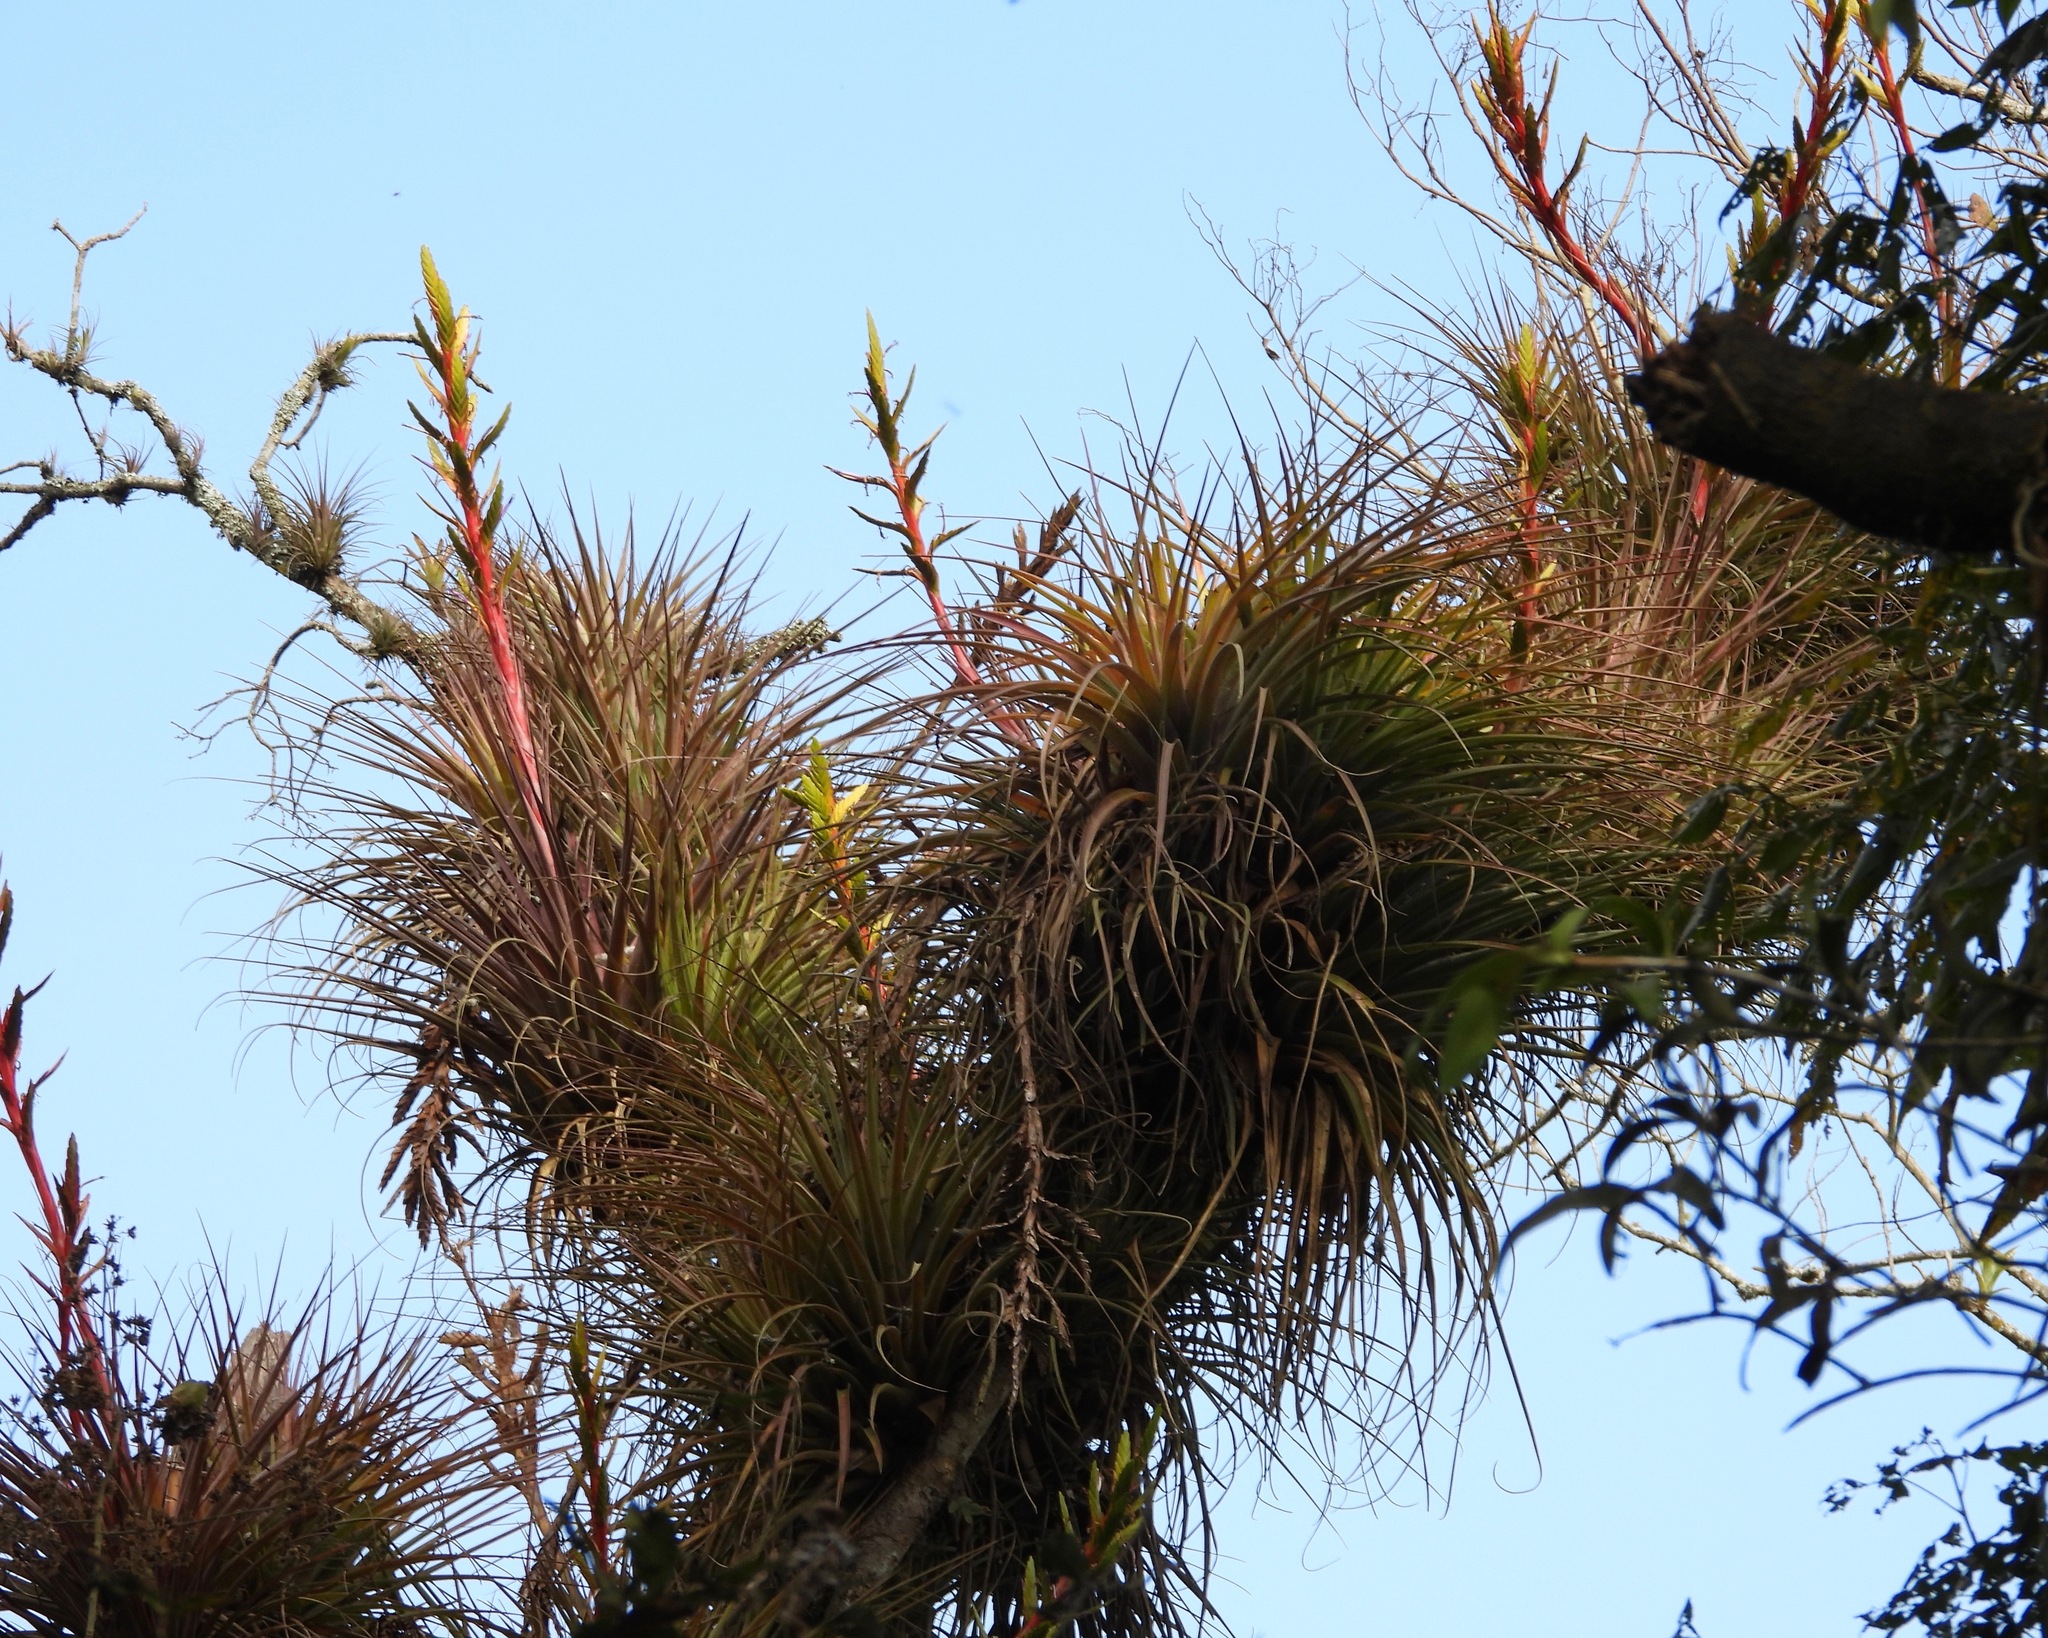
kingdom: Plantae
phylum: Tracheophyta
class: Liliopsida
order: Poales
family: Bromeliaceae
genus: Tillandsia
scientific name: Tillandsia rodrigueziana
